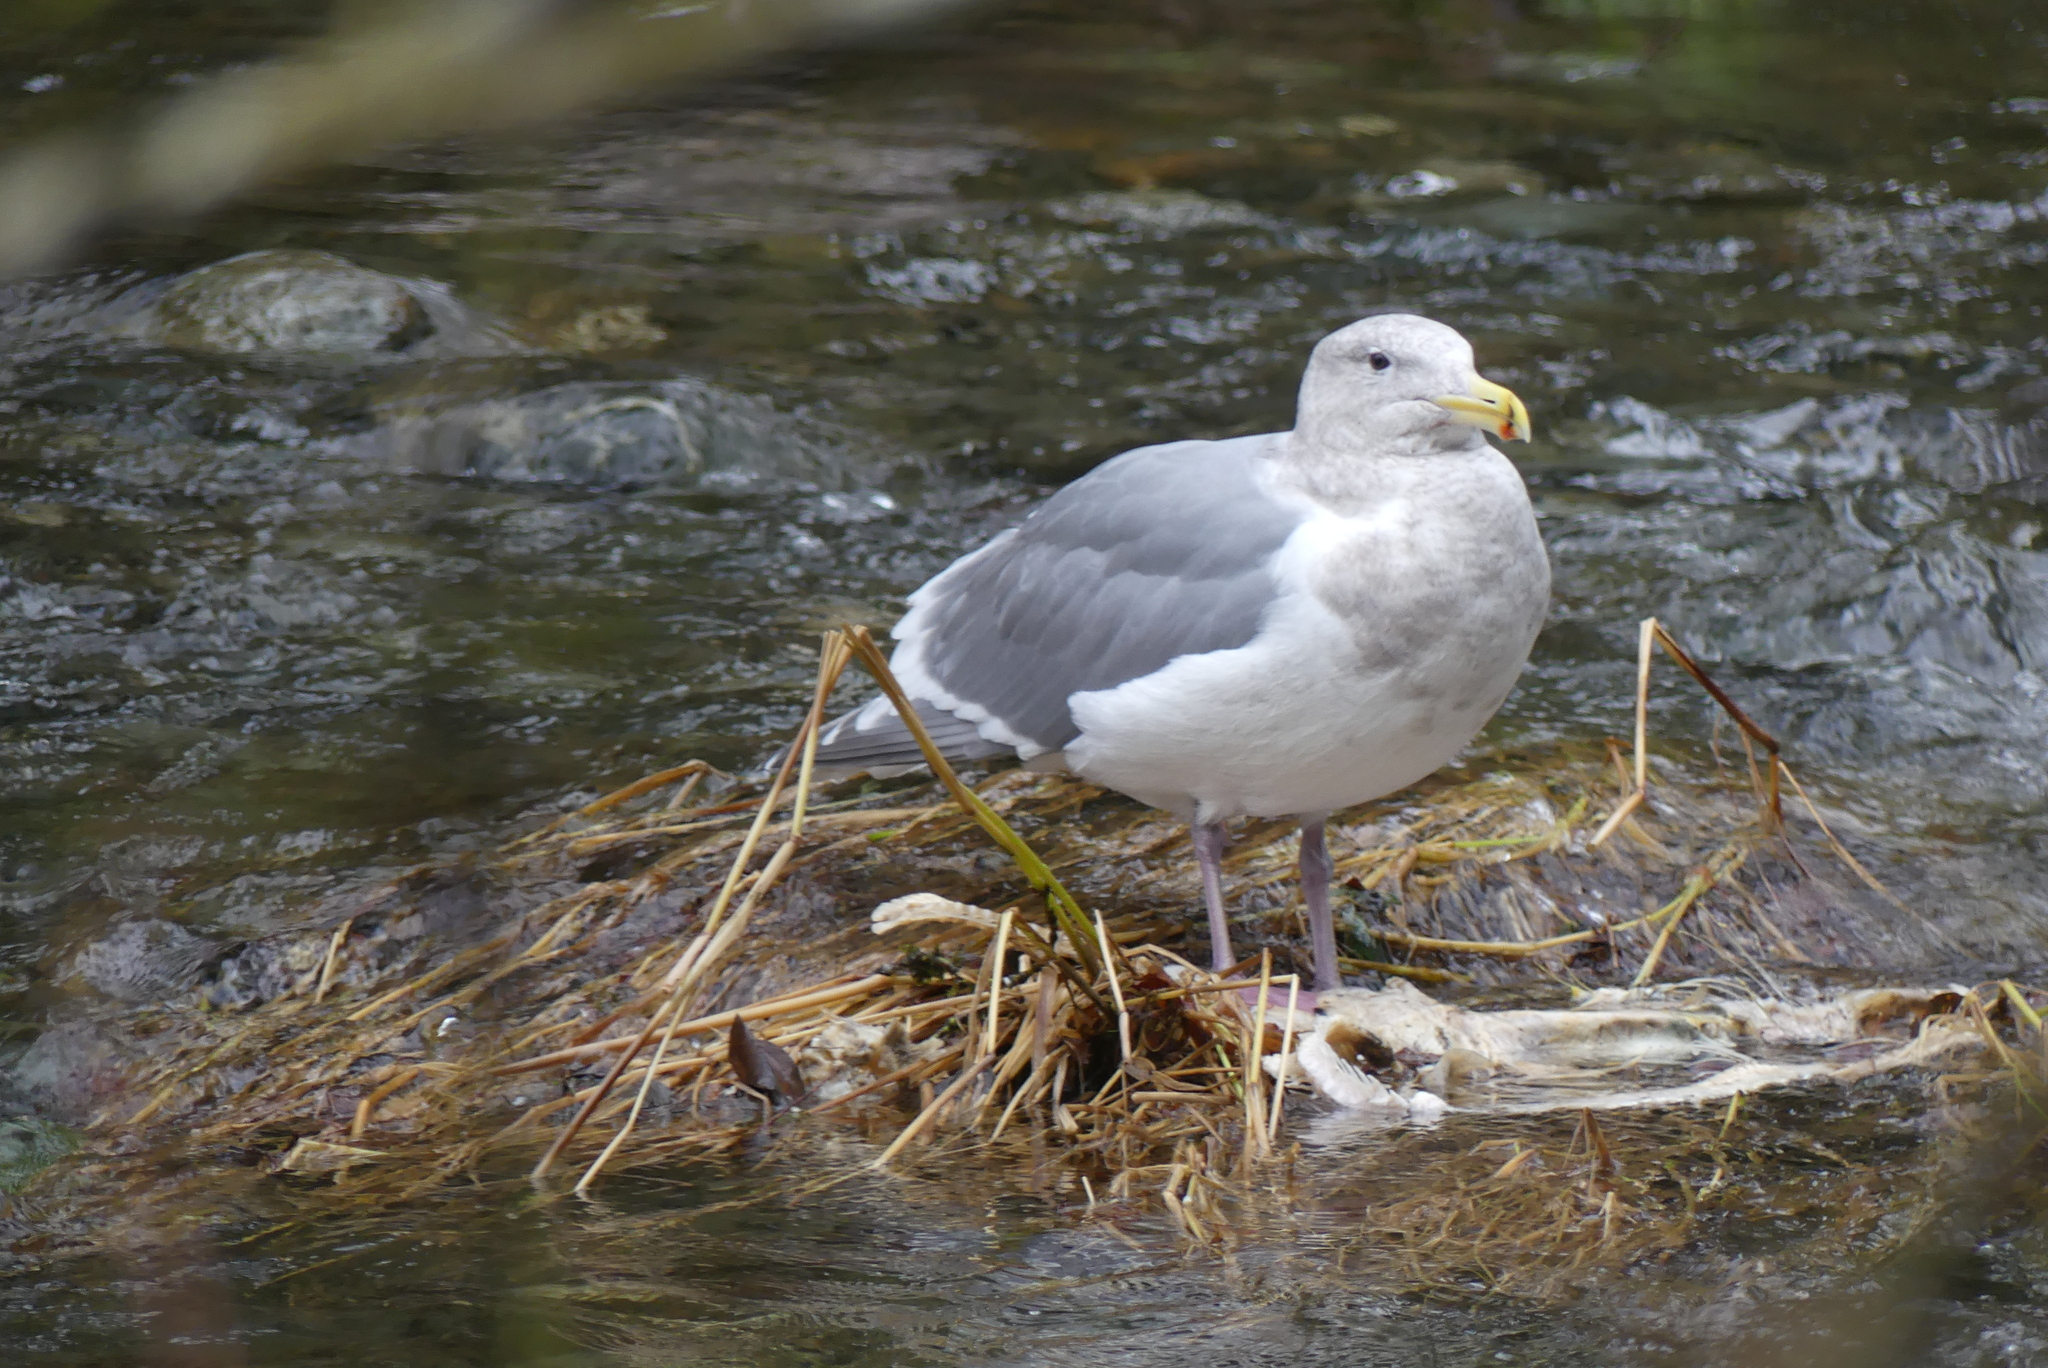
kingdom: Animalia
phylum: Chordata
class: Aves
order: Charadriiformes
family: Laridae
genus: Larus
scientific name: Larus glaucescens
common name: Glaucous-winged gull
